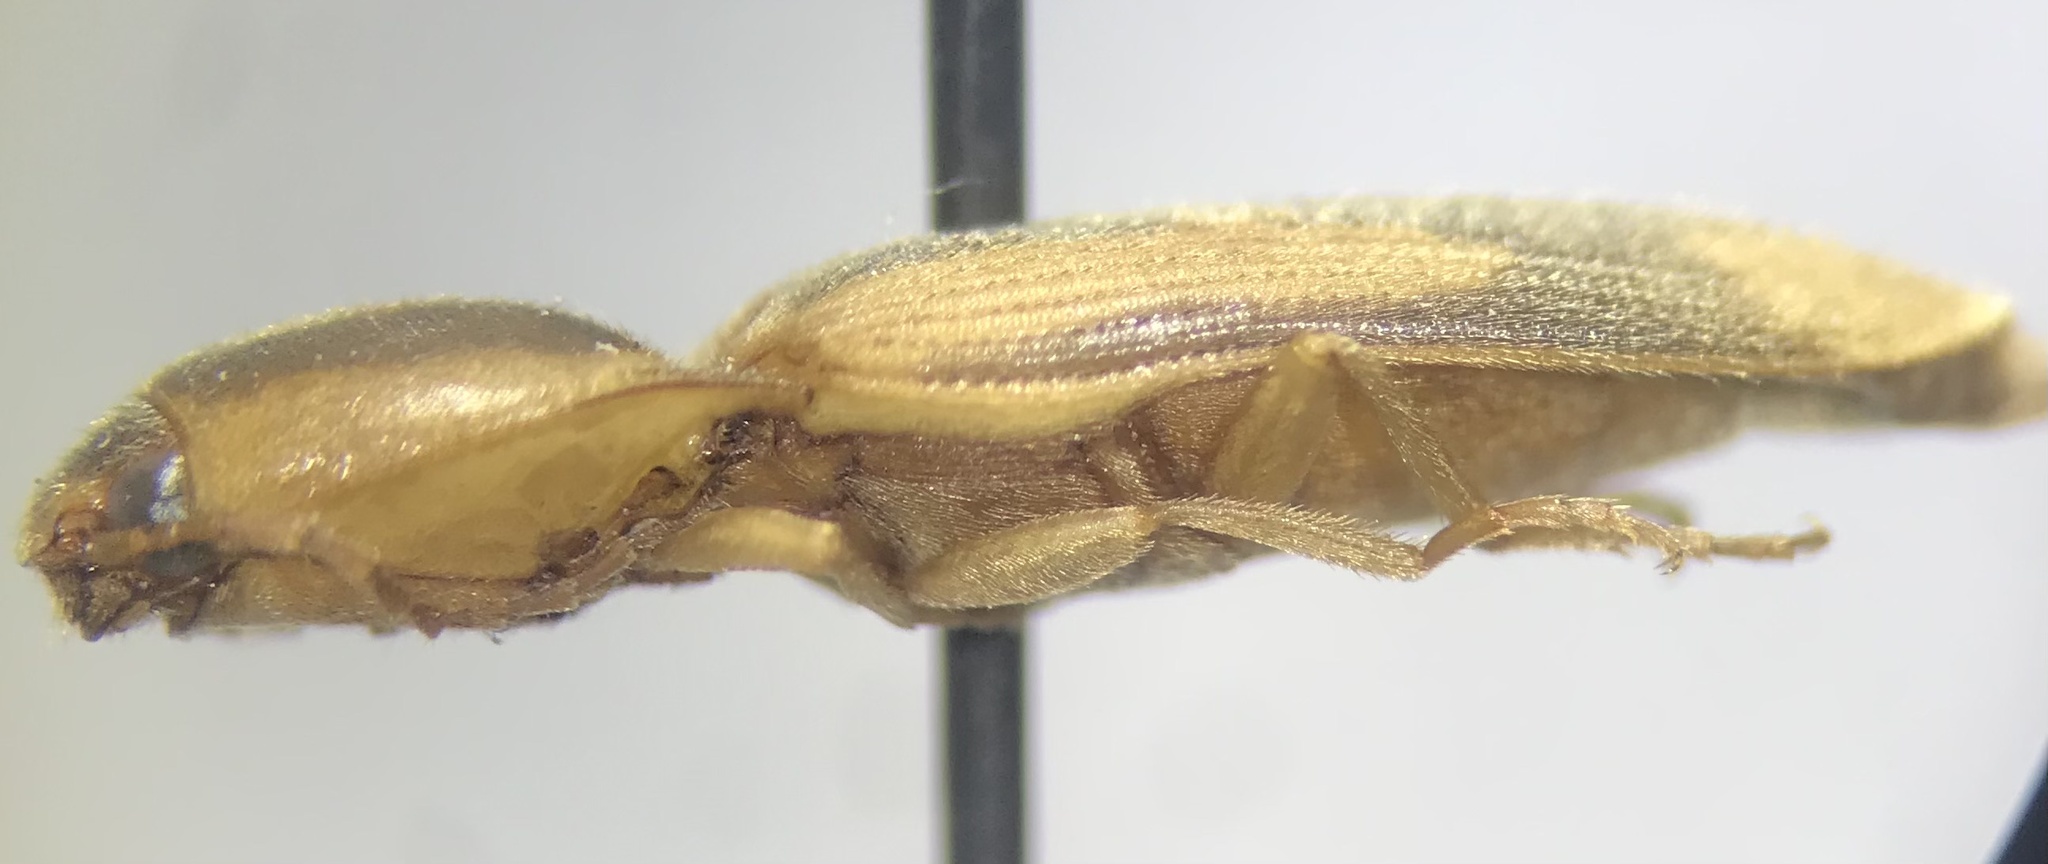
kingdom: Animalia
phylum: Arthropoda
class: Insecta
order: Coleoptera
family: Elateridae
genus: Monocrepidius
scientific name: Monocrepidius
